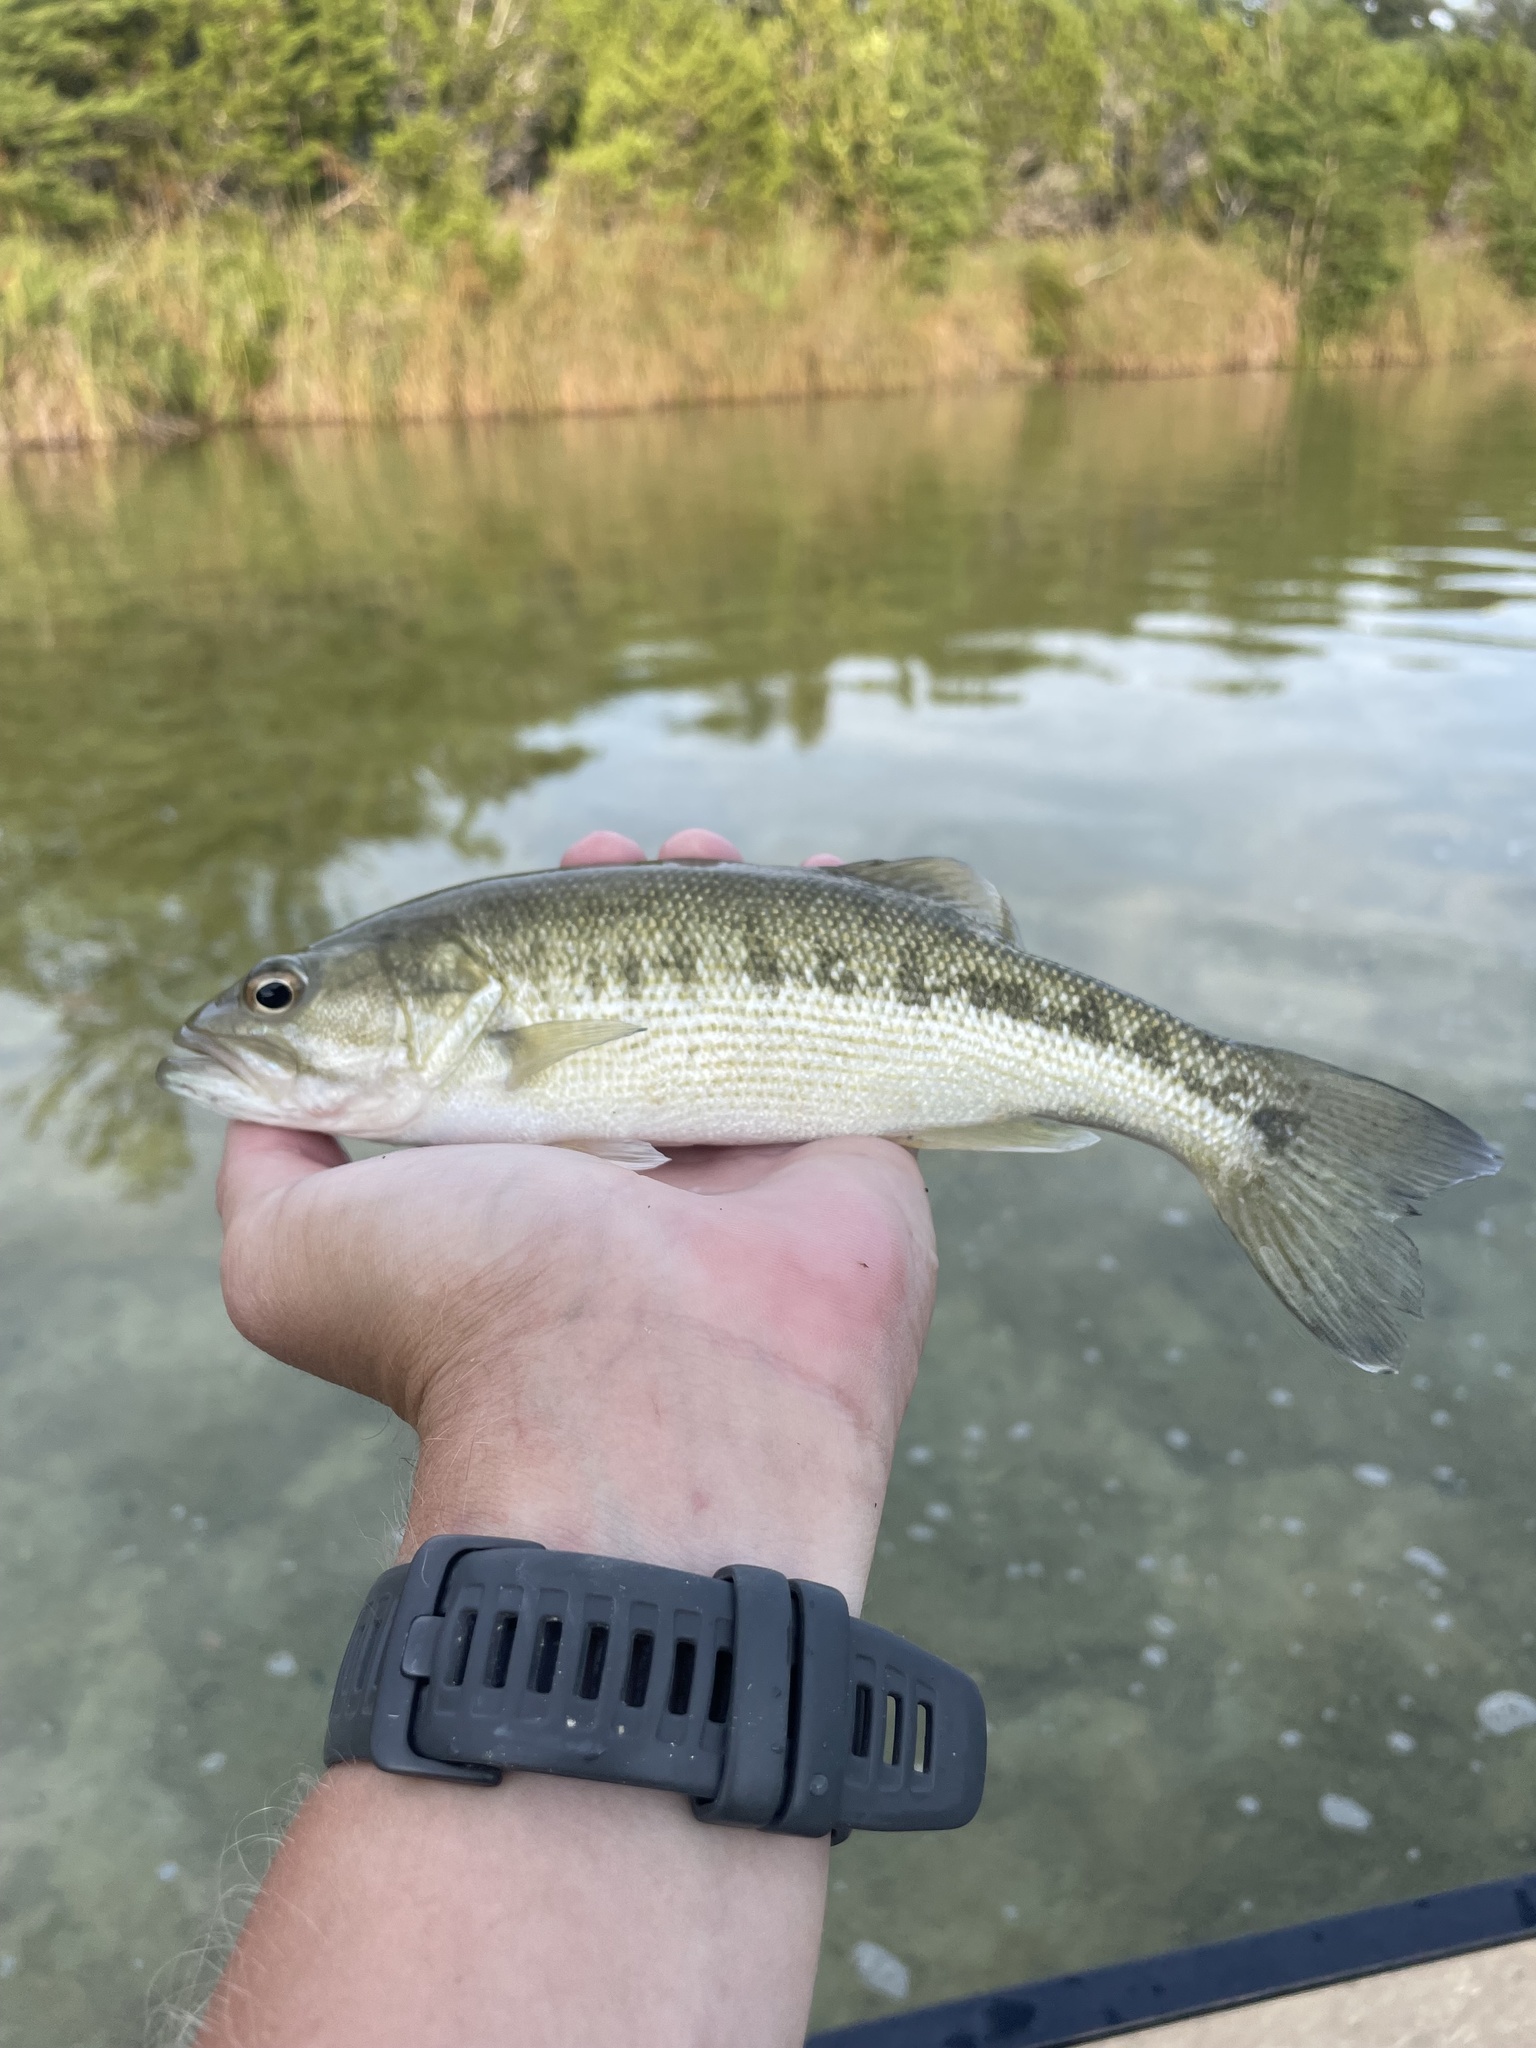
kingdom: Animalia
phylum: Chordata
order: Perciformes
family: Centrarchidae
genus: Micropterus
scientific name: Micropterus treculii
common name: Guadalupe bass
